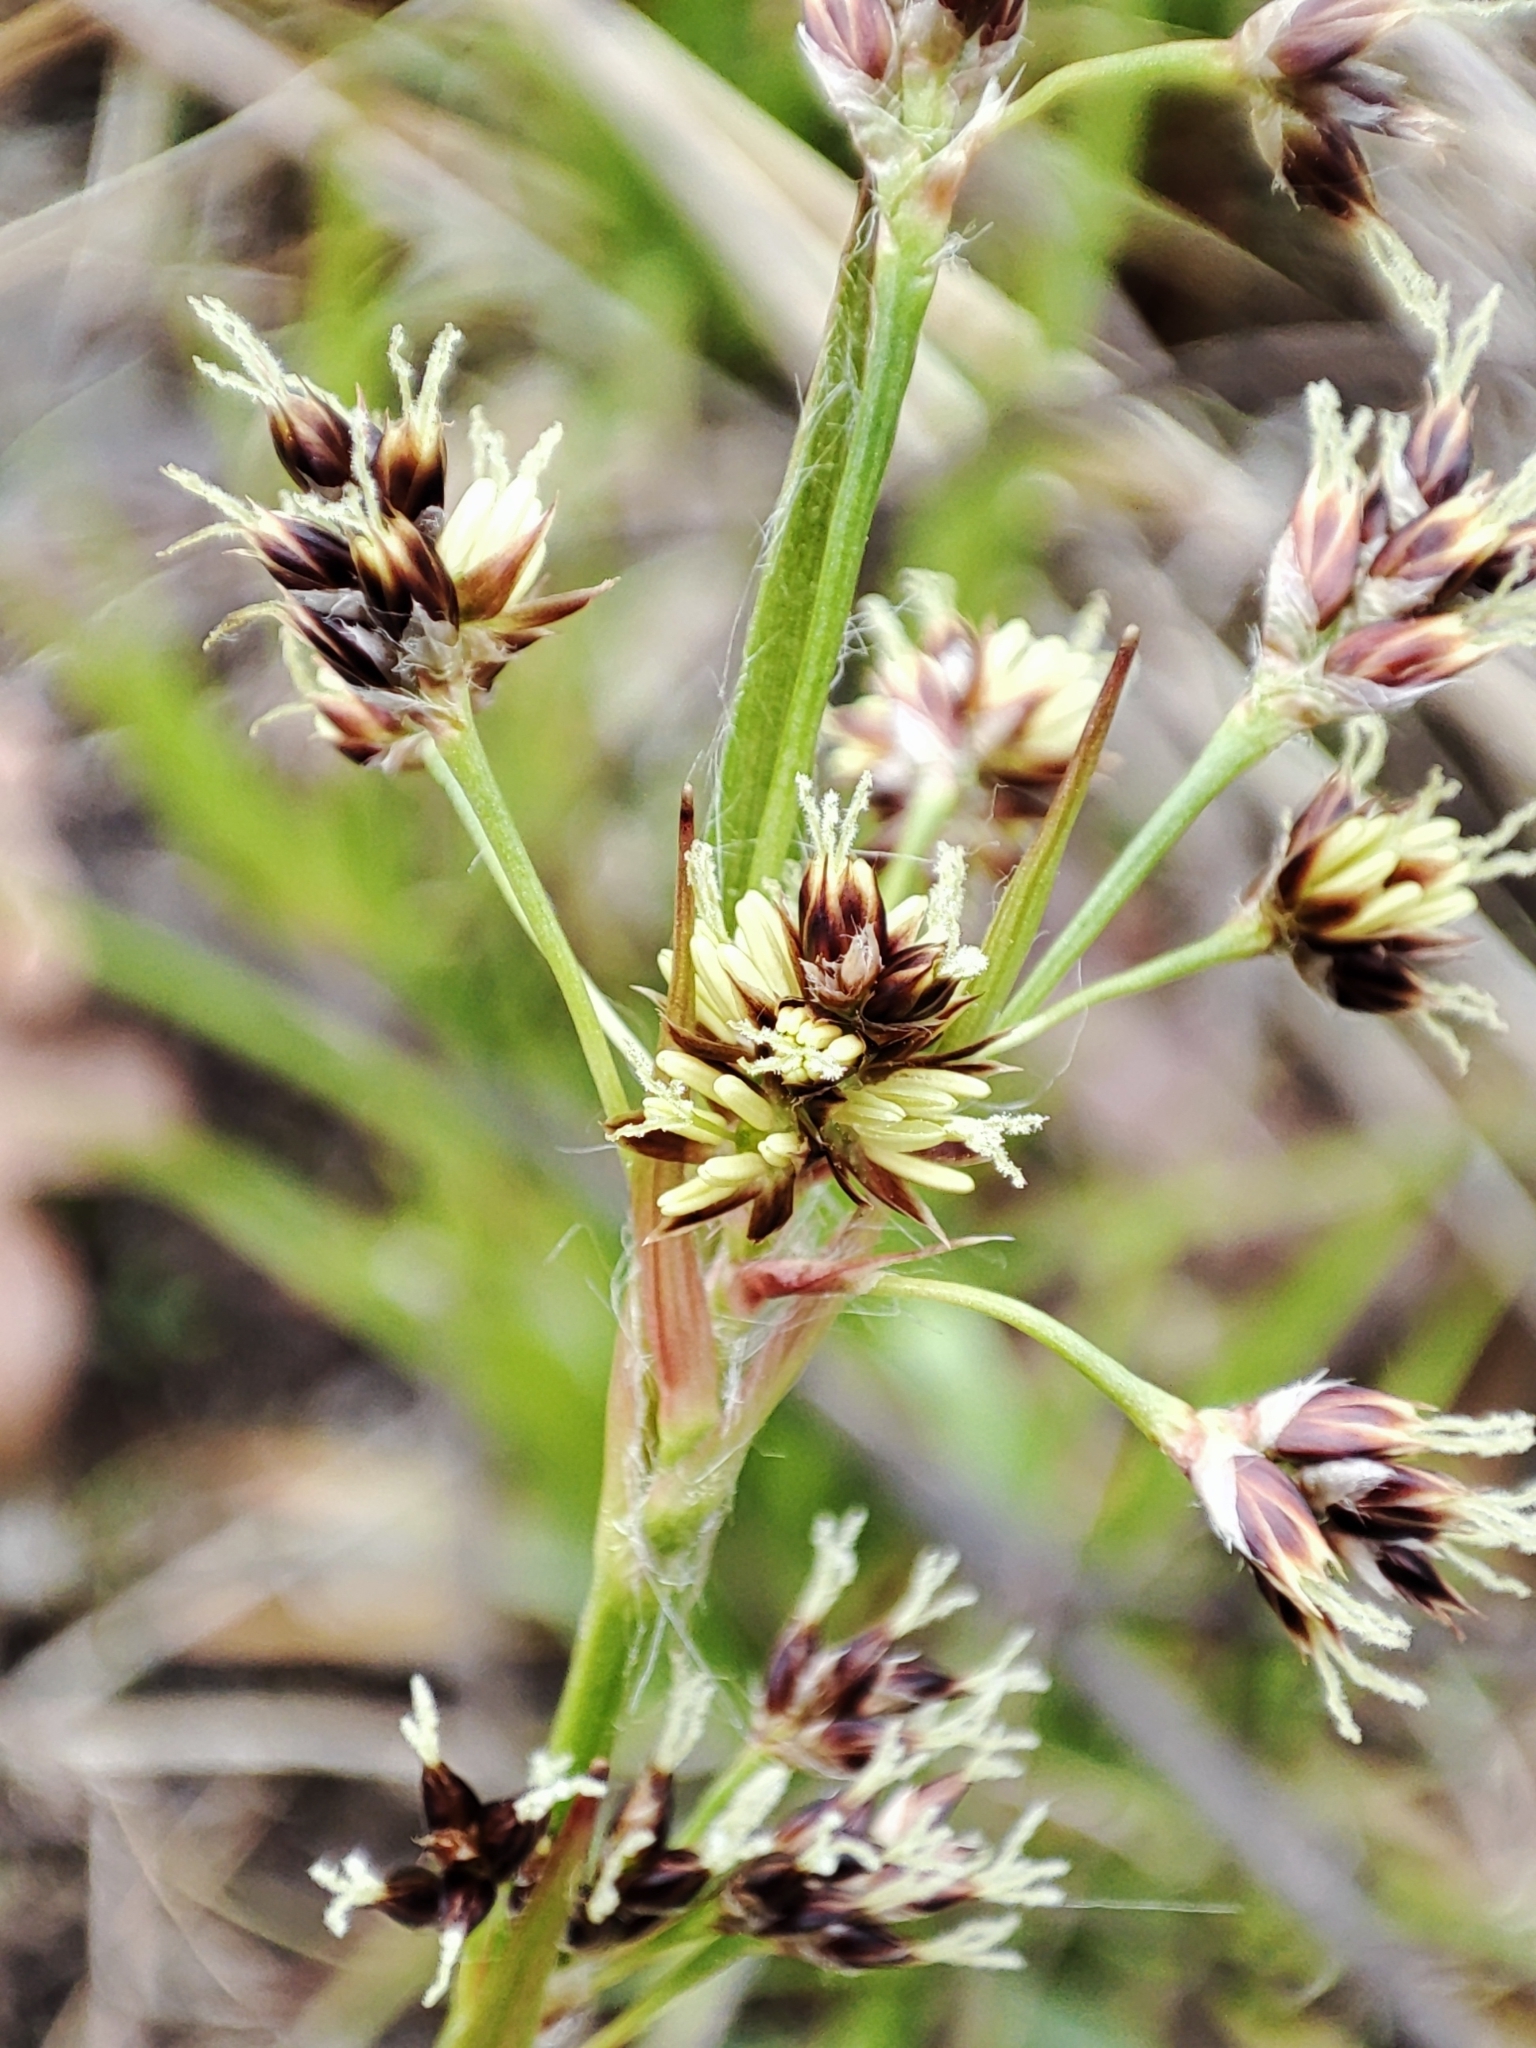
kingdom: Plantae
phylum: Tracheophyta
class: Liliopsida
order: Poales
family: Juncaceae
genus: Luzula
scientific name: Luzula campestris
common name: Field wood-rush
